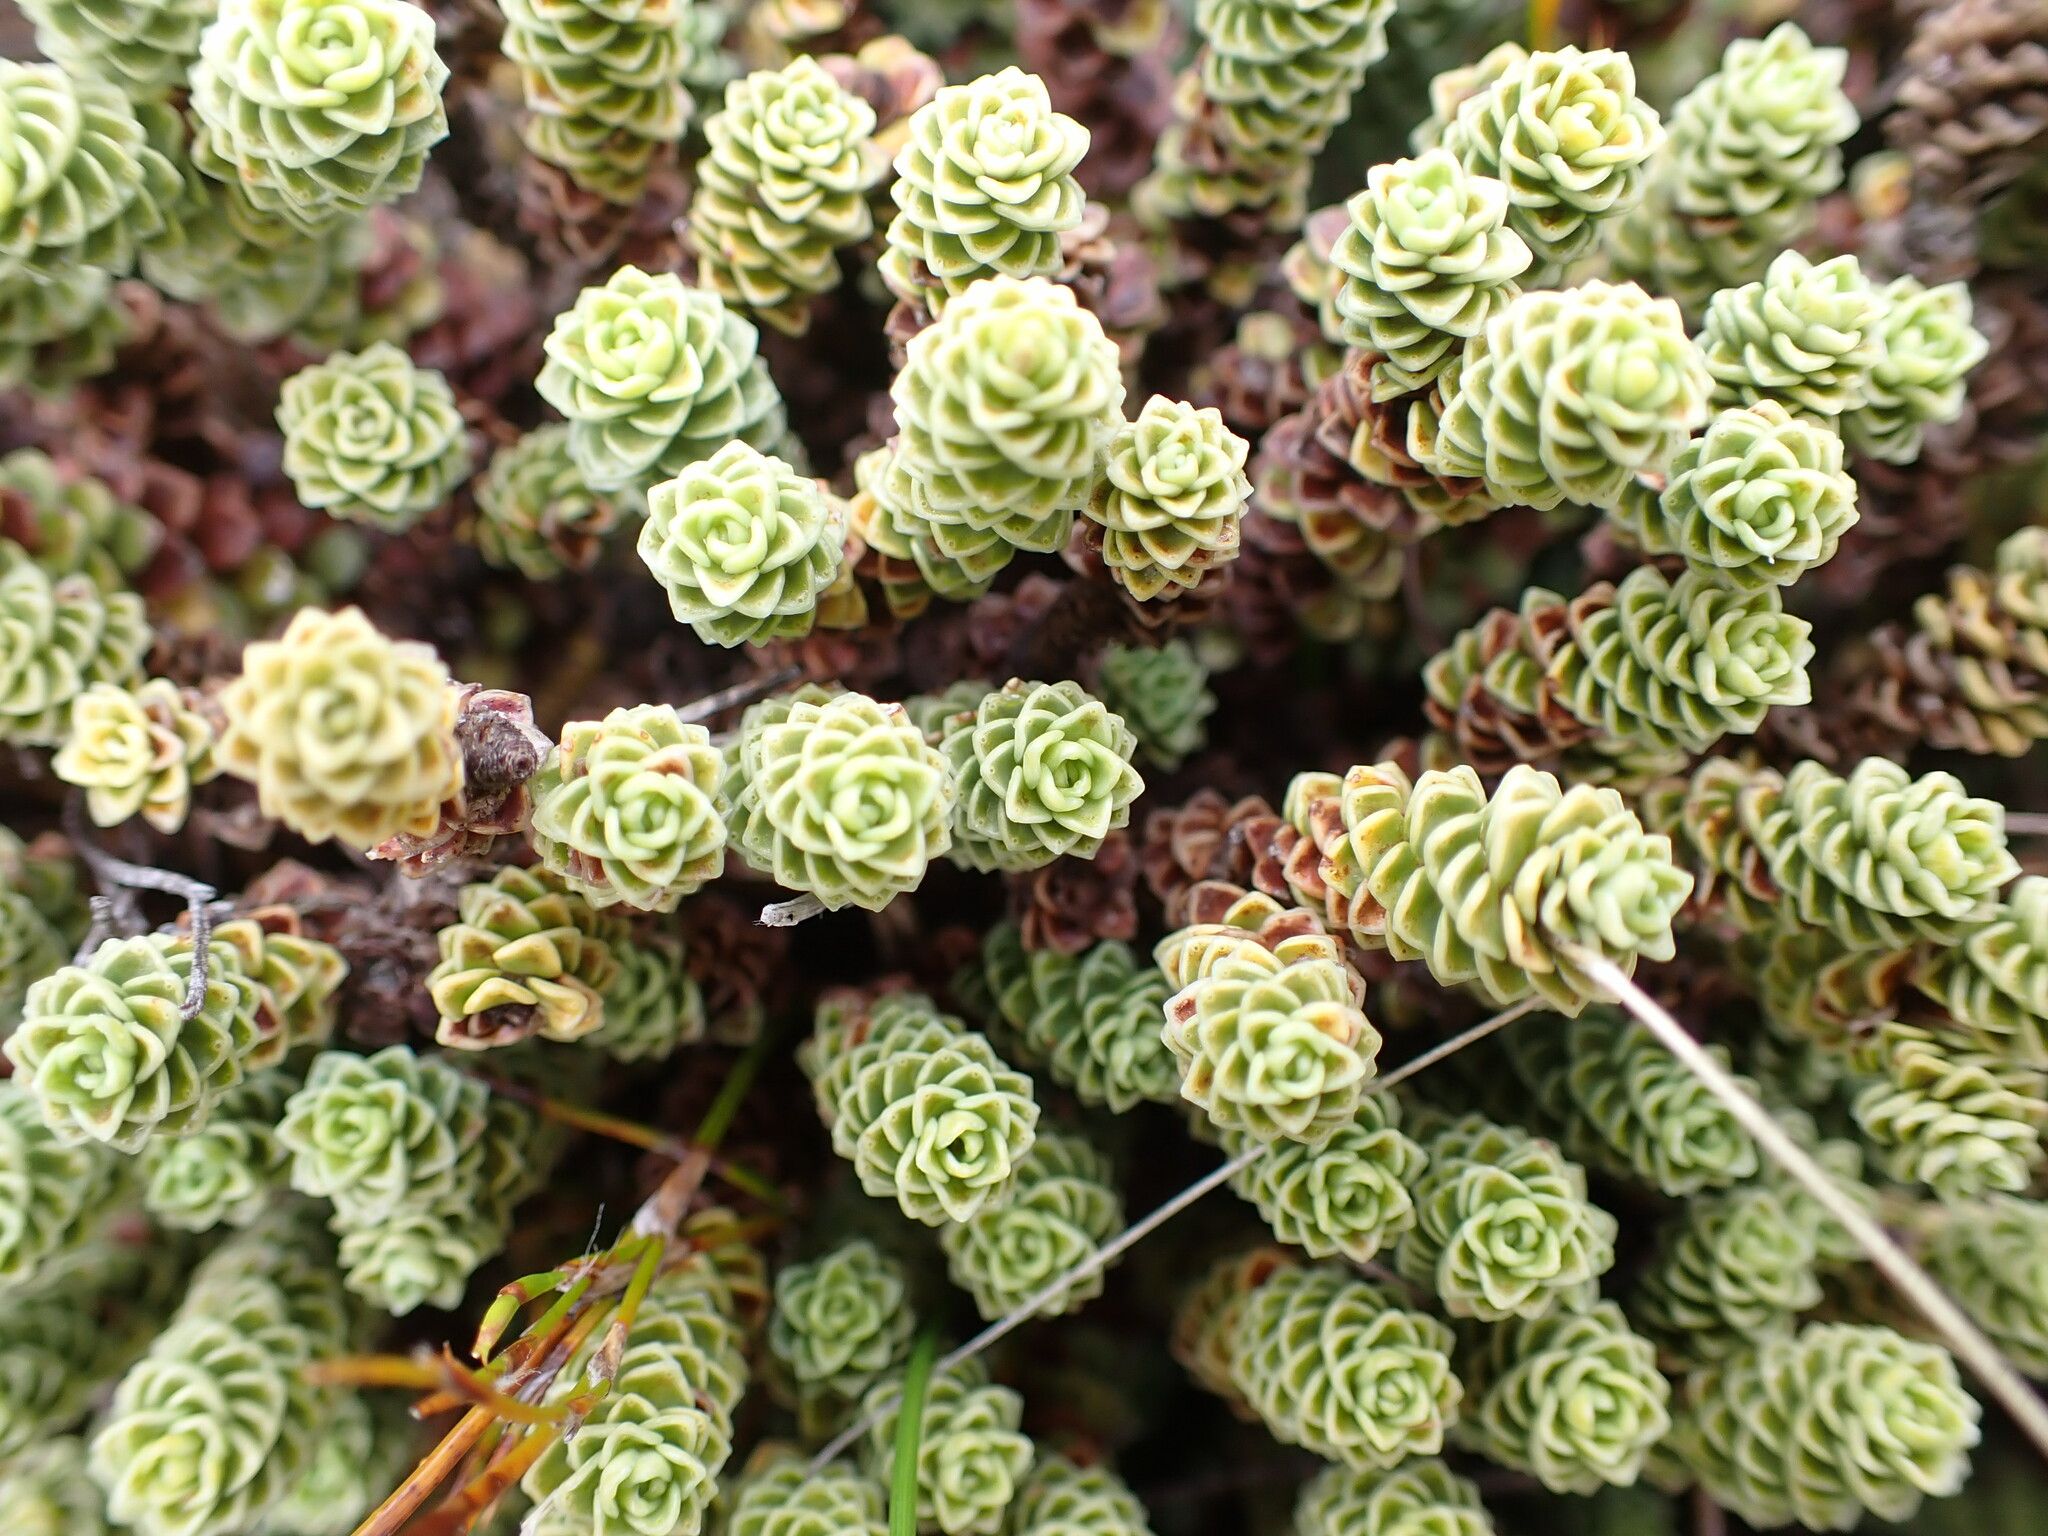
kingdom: Plantae
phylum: Tracheophyta
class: Magnoliopsida
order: Asterales
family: Stylidiaceae
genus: Forstera
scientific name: Forstera sedifolia
